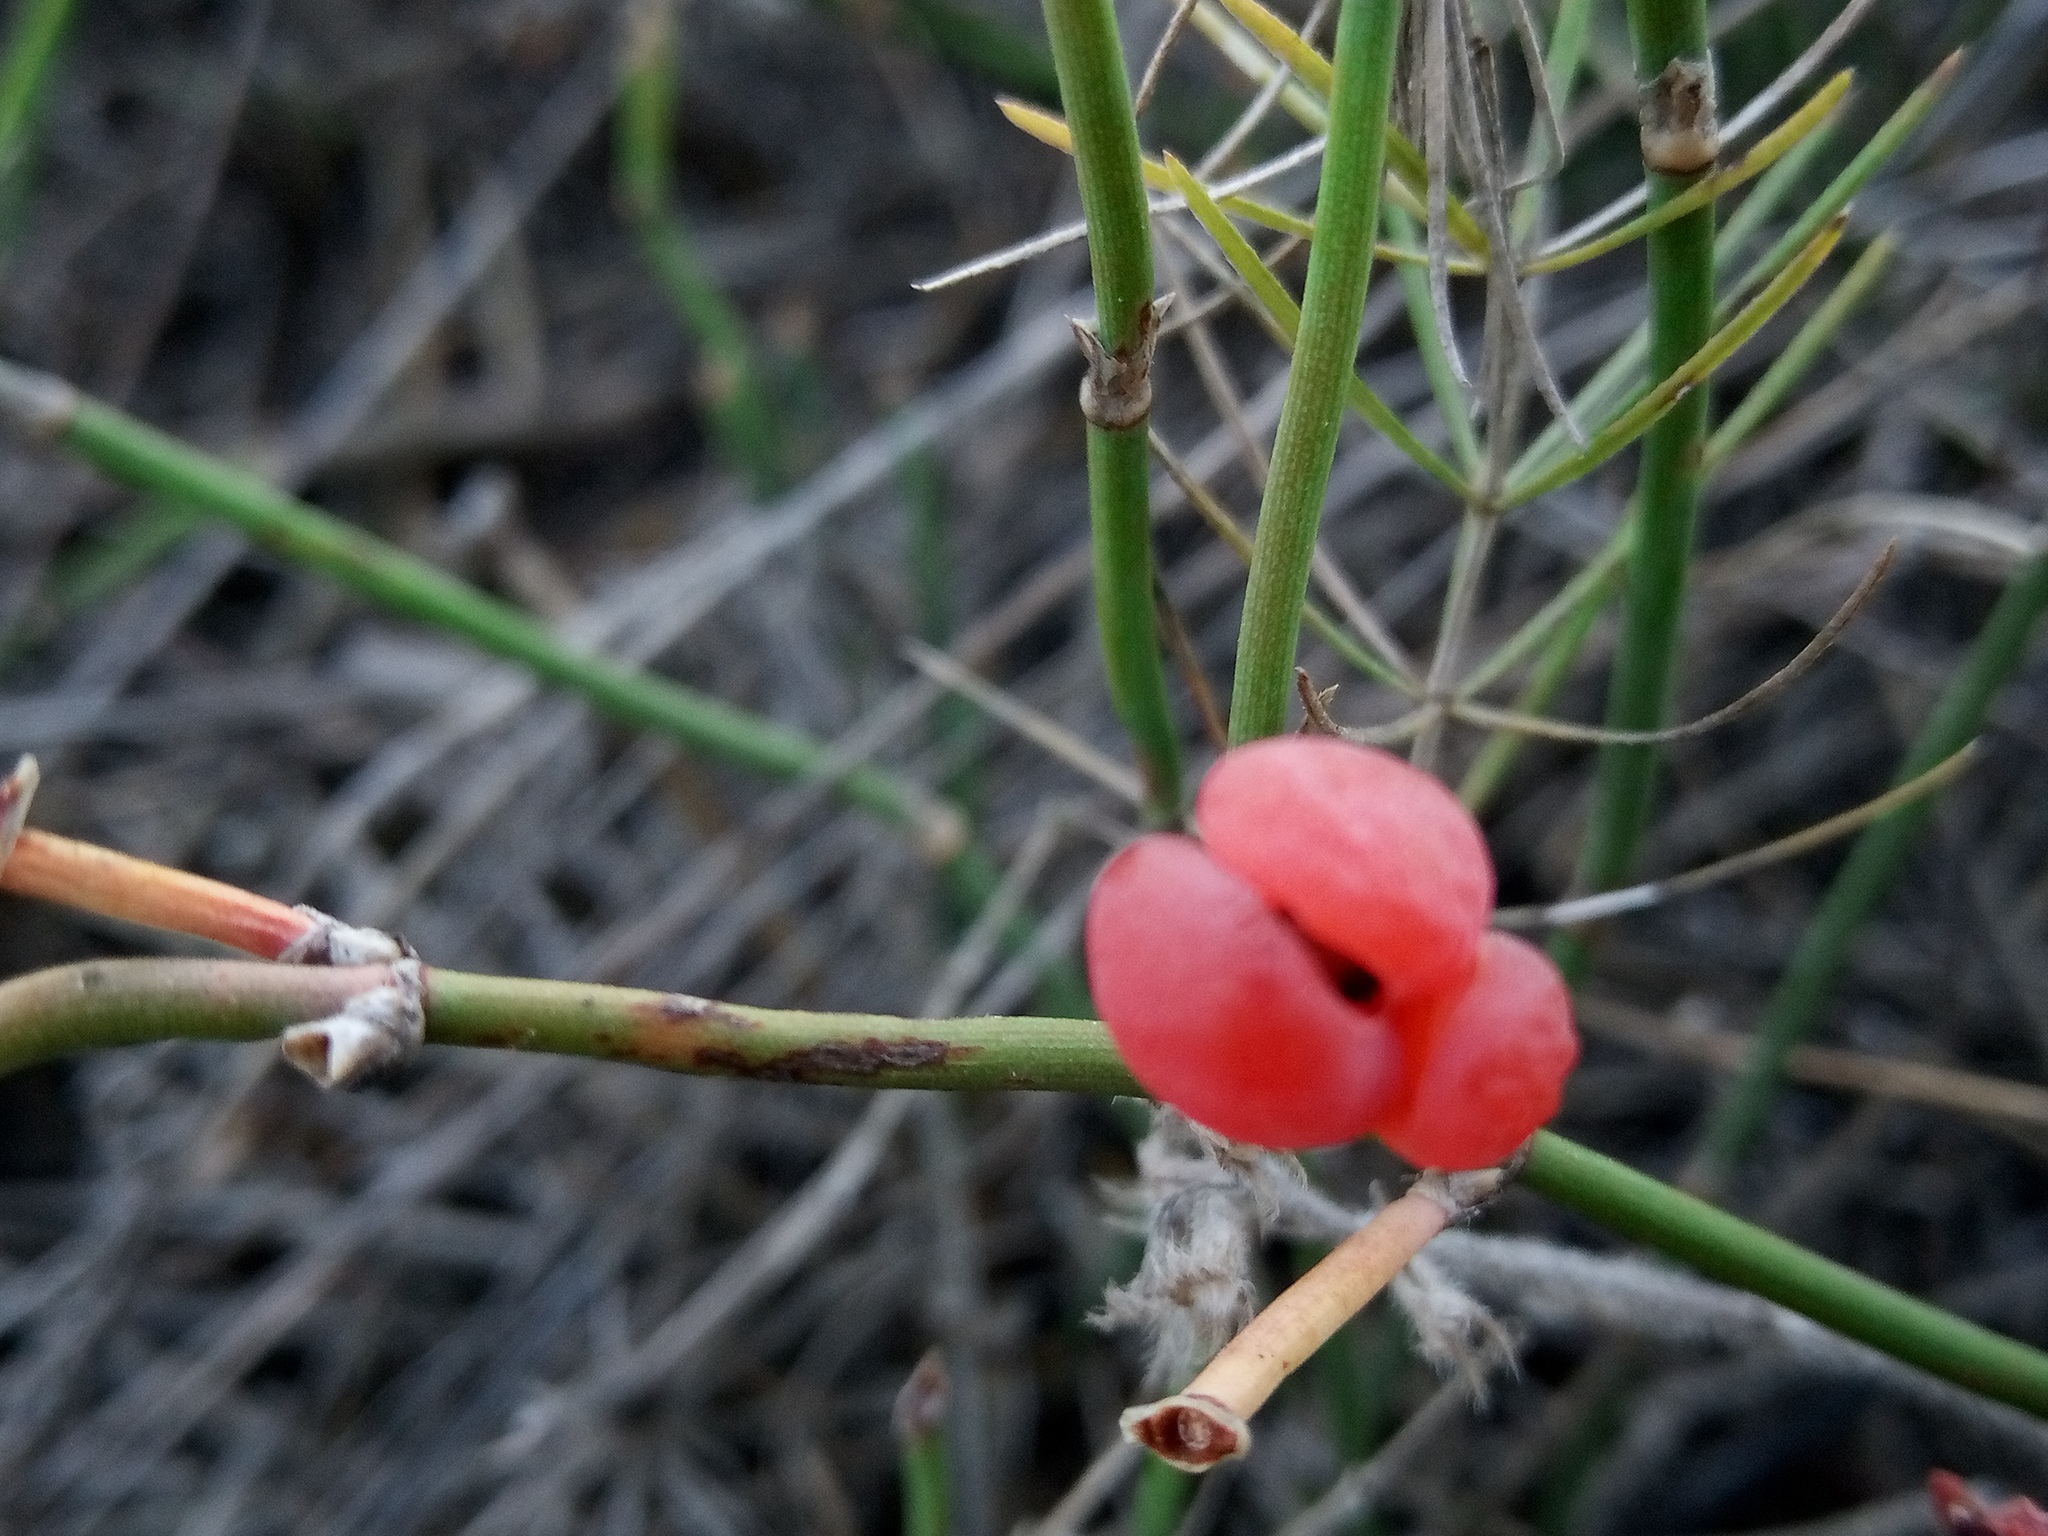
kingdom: Plantae
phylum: Tracheophyta
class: Gnetopsida
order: Ephedrales
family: Ephedraceae
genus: Ephedra
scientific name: Ephedra distachya
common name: Sea grape
